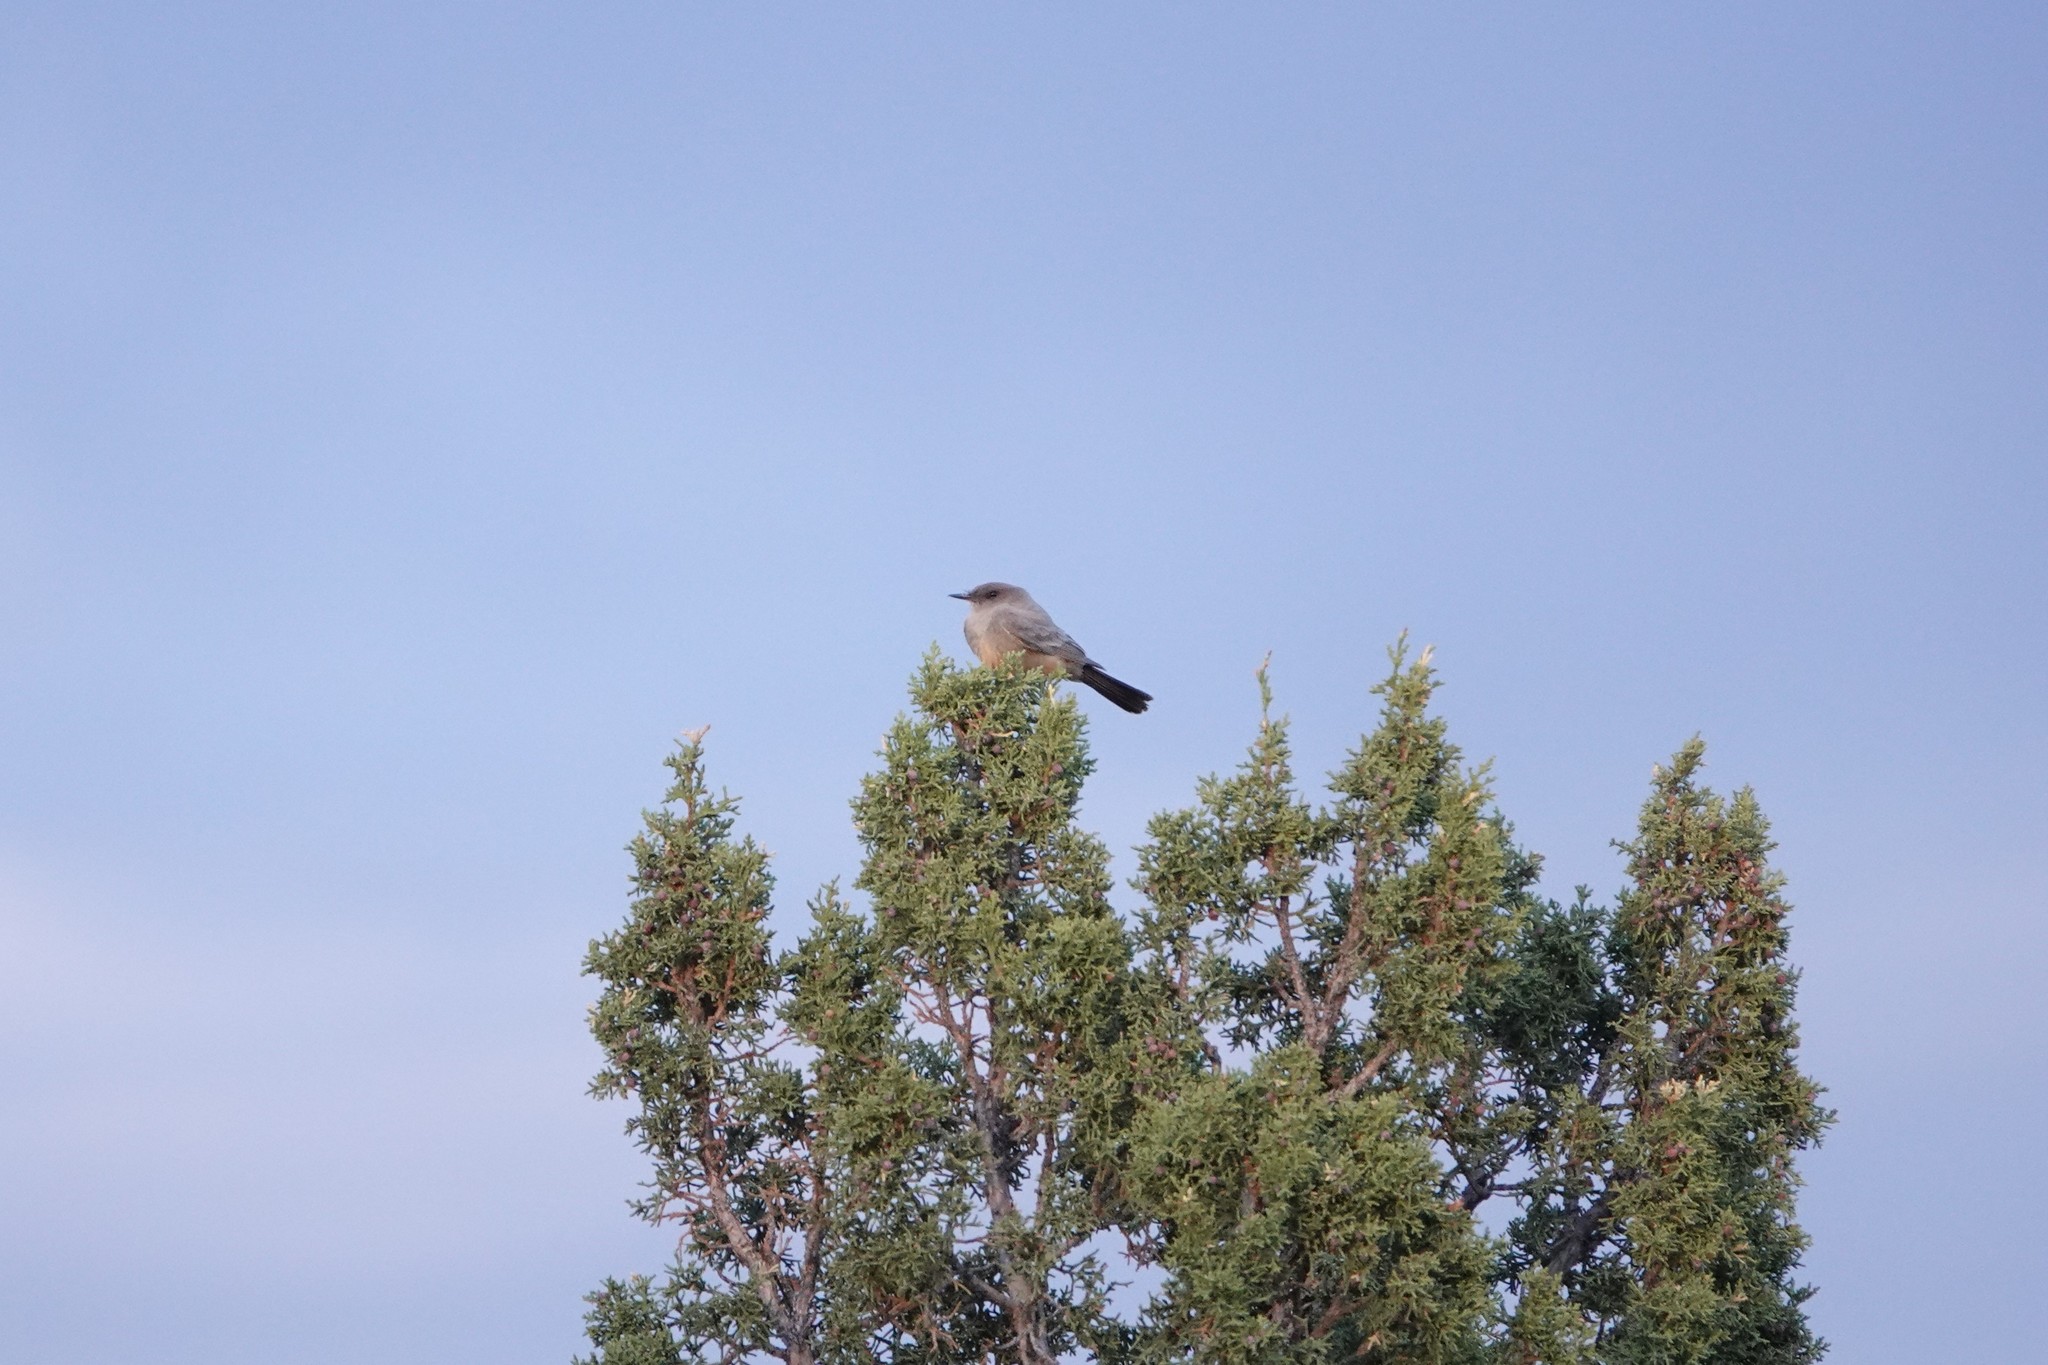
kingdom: Animalia
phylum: Chordata
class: Aves
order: Passeriformes
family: Tyrannidae
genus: Sayornis
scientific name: Sayornis saya
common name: Say's phoebe
